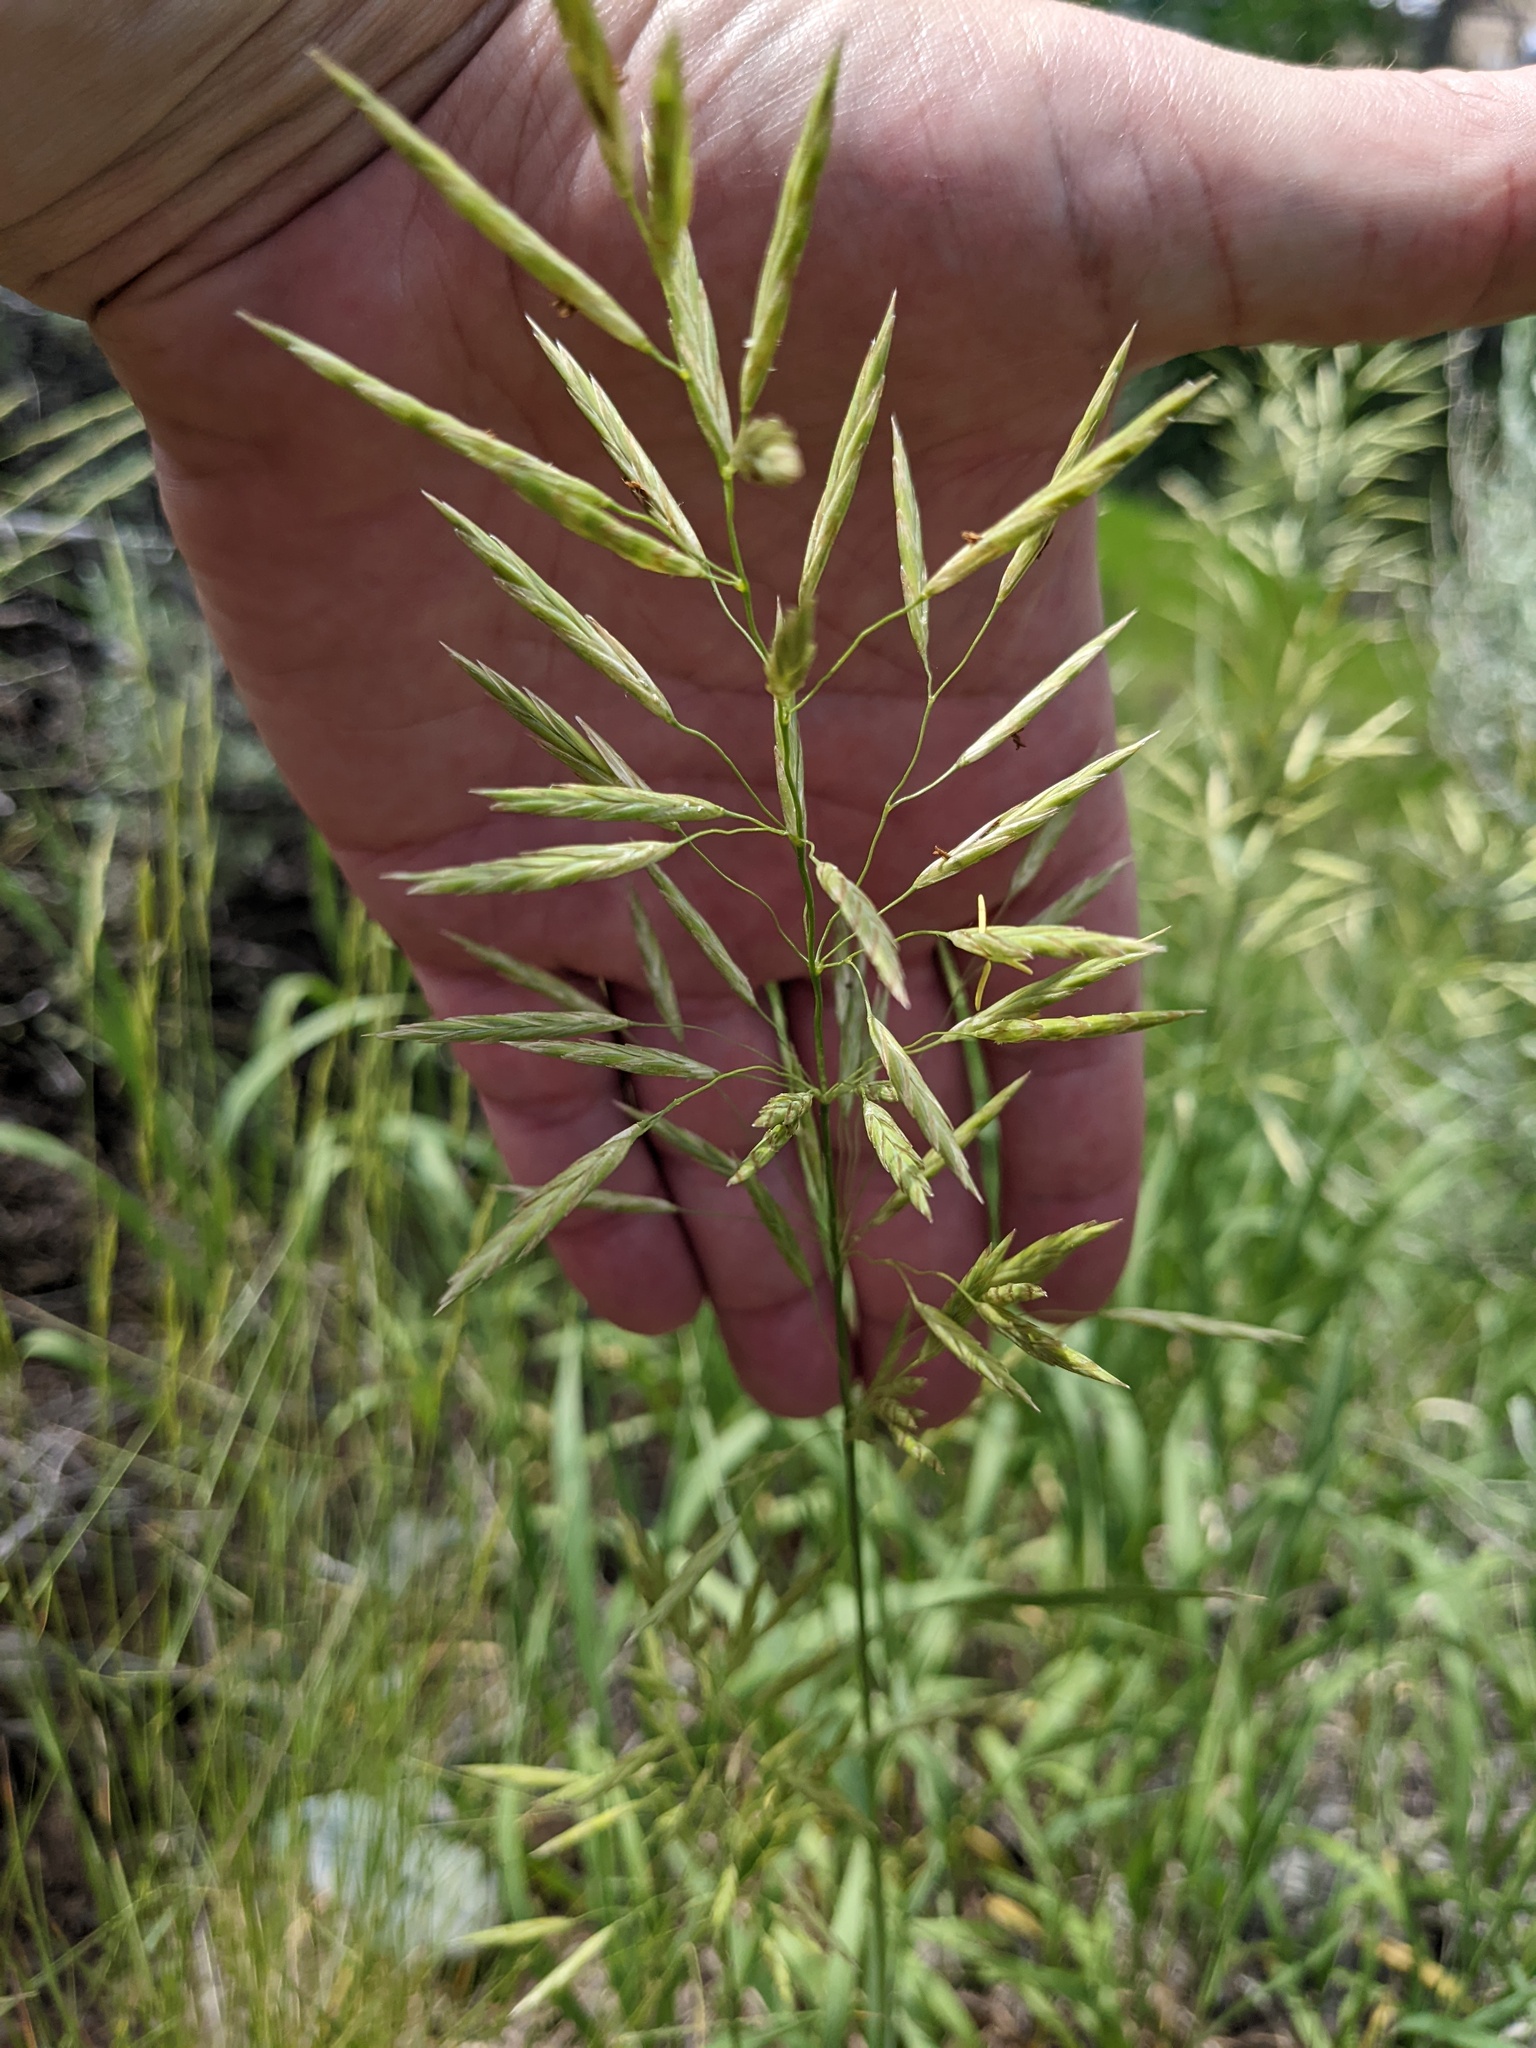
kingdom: Plantae
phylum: Tracheophyta
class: Liliopsida
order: Poales
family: Poaceae
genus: Bromus
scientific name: Bromus inermis
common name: Smooth brome
